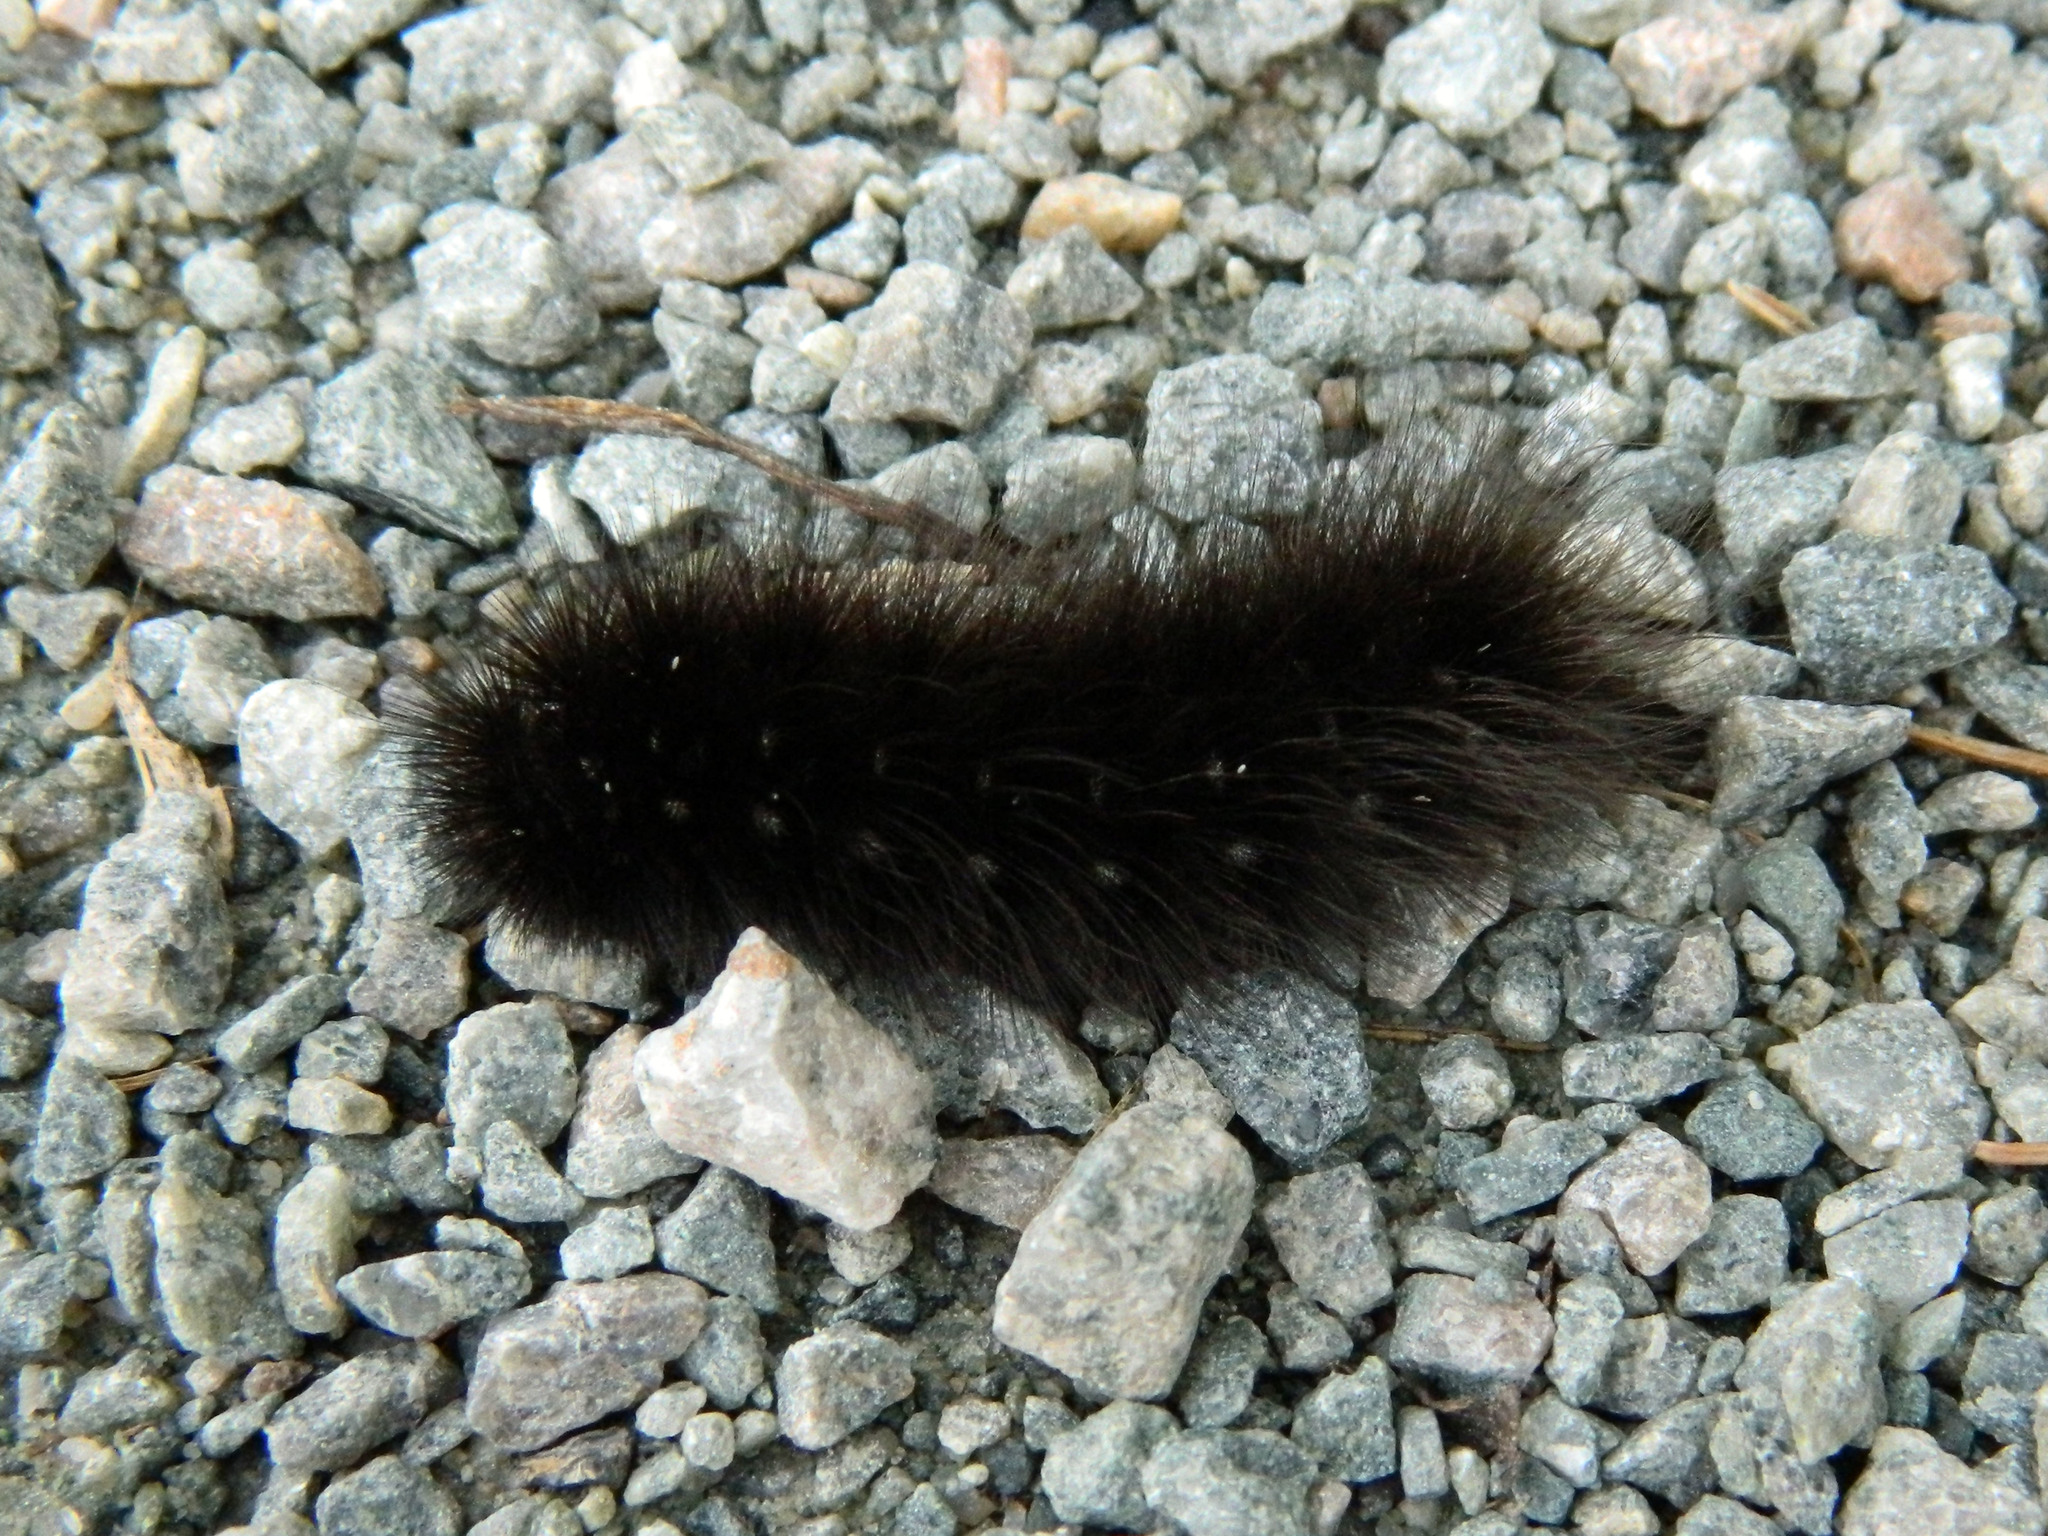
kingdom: Animalia
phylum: Arthropoda
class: Insecta
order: Lepidoptera
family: Erebidae
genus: Arctia
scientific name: Arctia parthenos
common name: St. lawrence tiger moth
